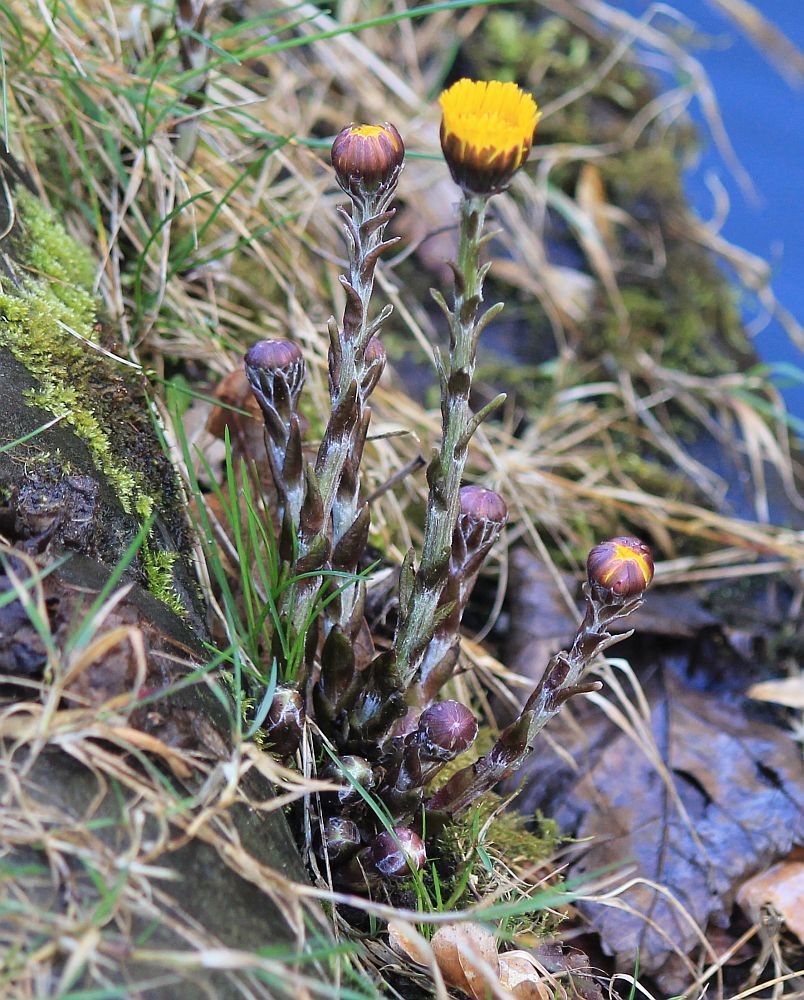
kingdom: Plantae
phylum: Tracheophyta
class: Magnoliopsida
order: Asterales
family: Asteraceae
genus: Tussilago
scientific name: Tussilago farfara
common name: Coltsfoot
